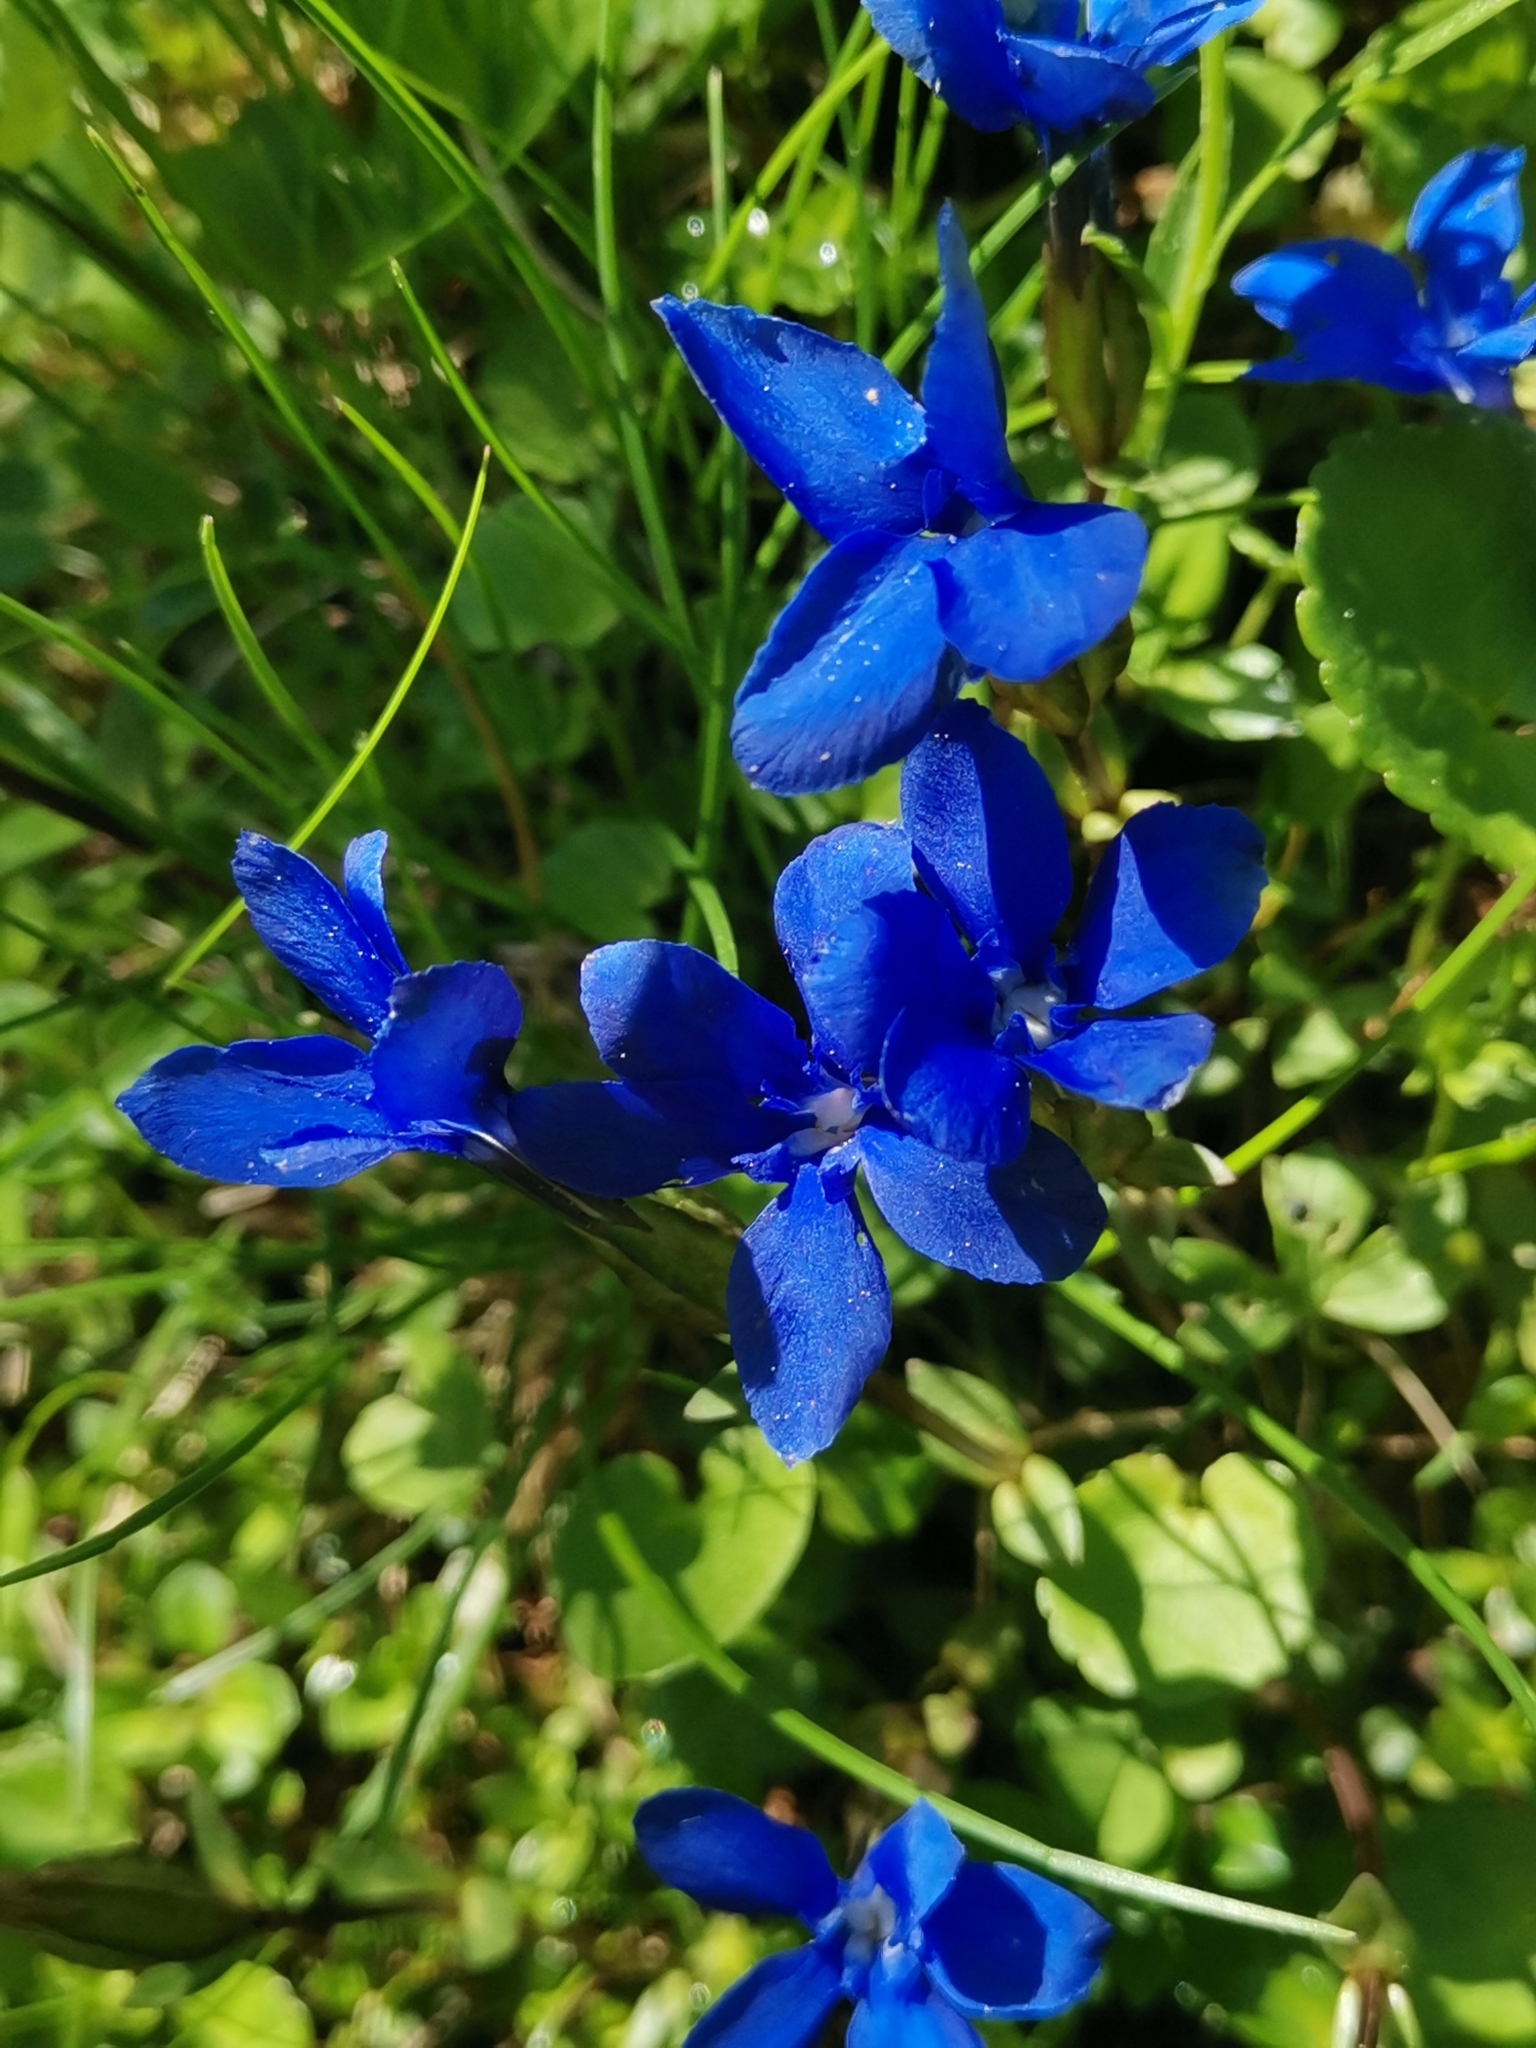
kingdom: Plantae
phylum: Tracheophyta
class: Magnoliopsida
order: Gentianales
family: Gentianaceae
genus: Gentiana
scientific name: Gentiana verna
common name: Spring gentian
